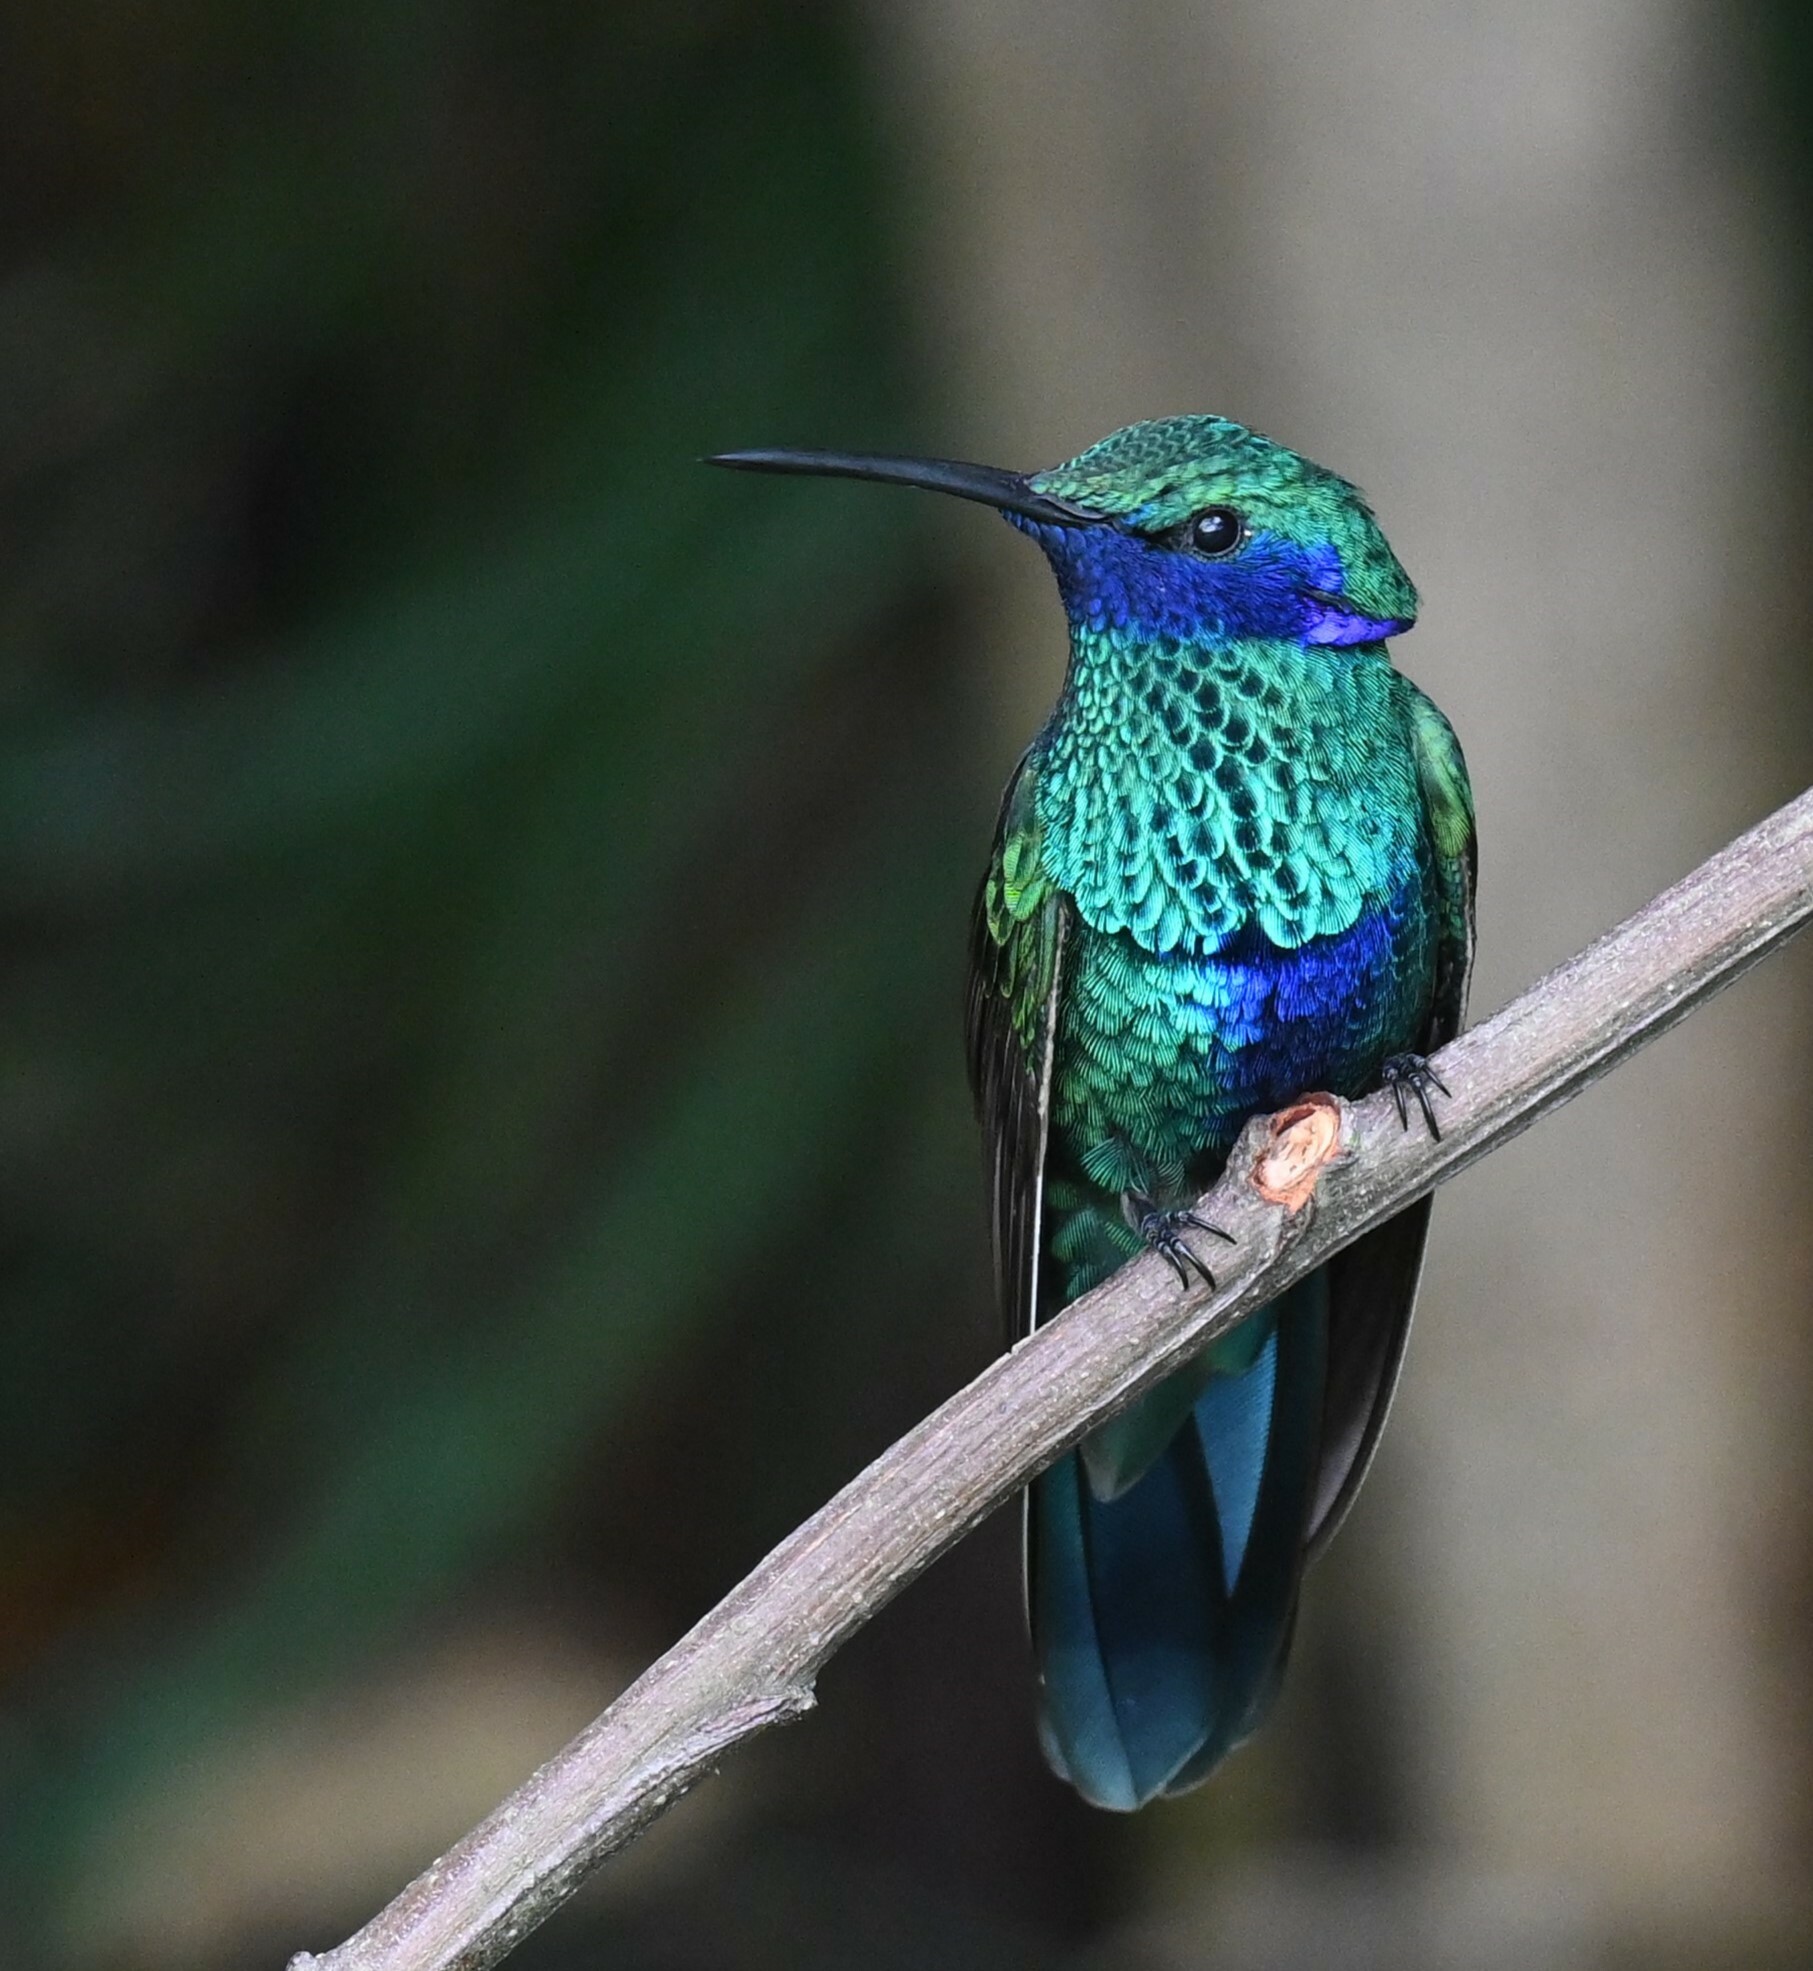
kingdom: Animalia
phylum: Chordata
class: Aves
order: Apodiformes
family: Trochilidae
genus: Colibri
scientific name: Colibri coruscans
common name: Sparkling violetear
